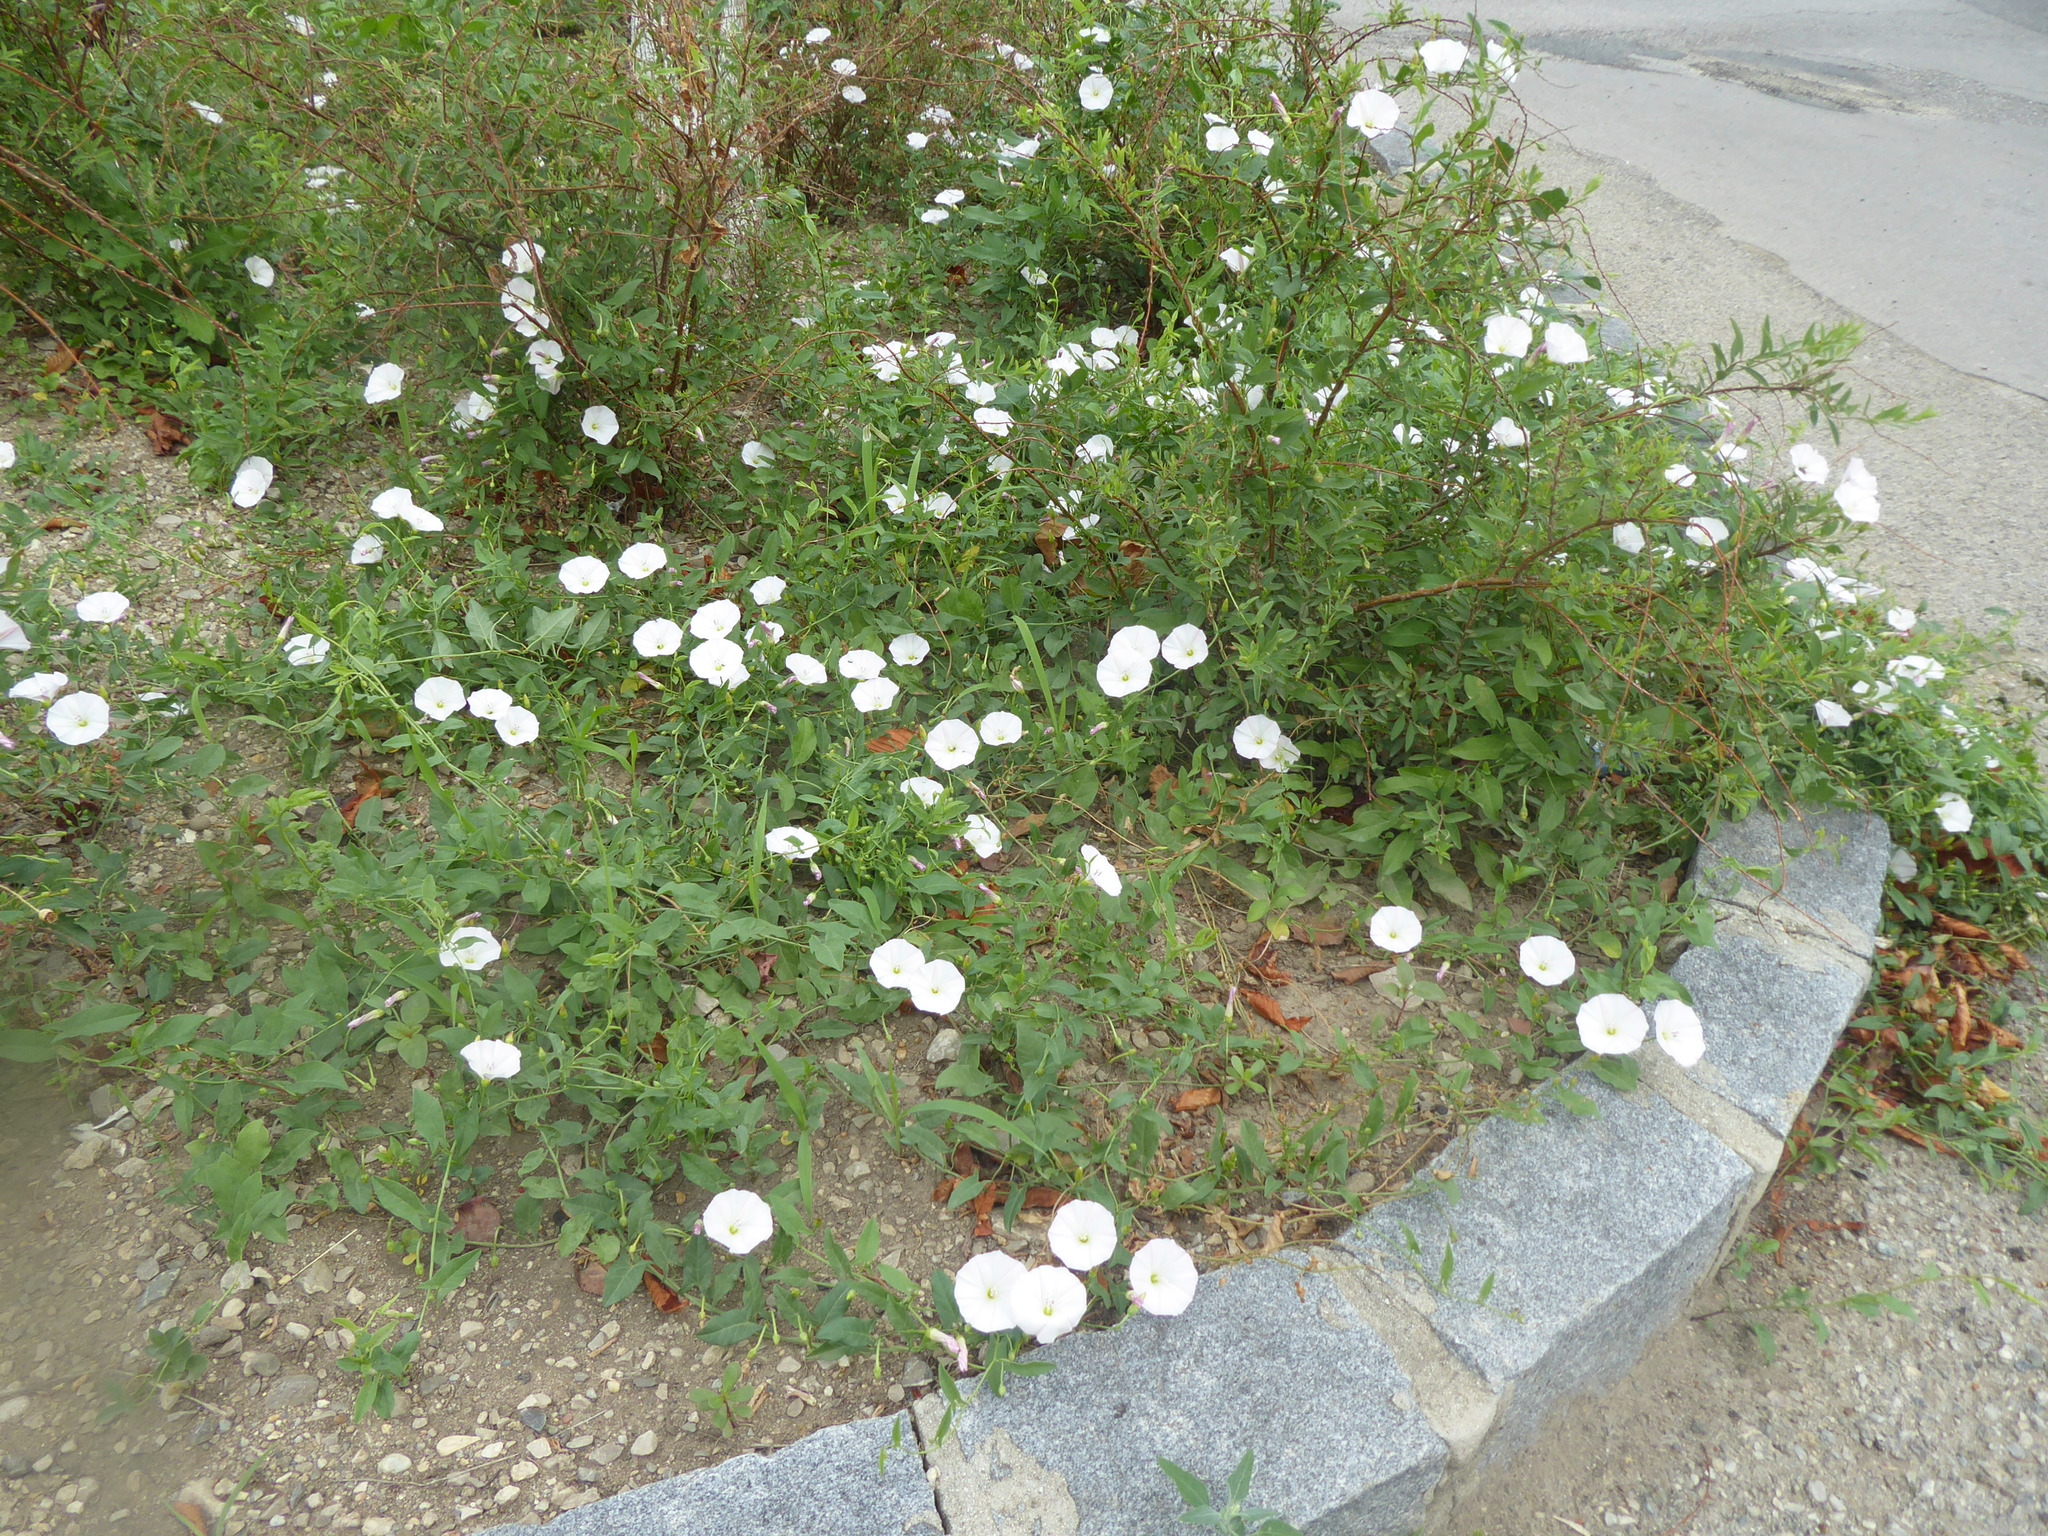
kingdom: Plantae
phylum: Tracheophyta
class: Magnoliopsida
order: Solanales
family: Convolvulaceae
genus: Convolvulus
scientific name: Convolvulus arvensis
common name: Field bindweed
